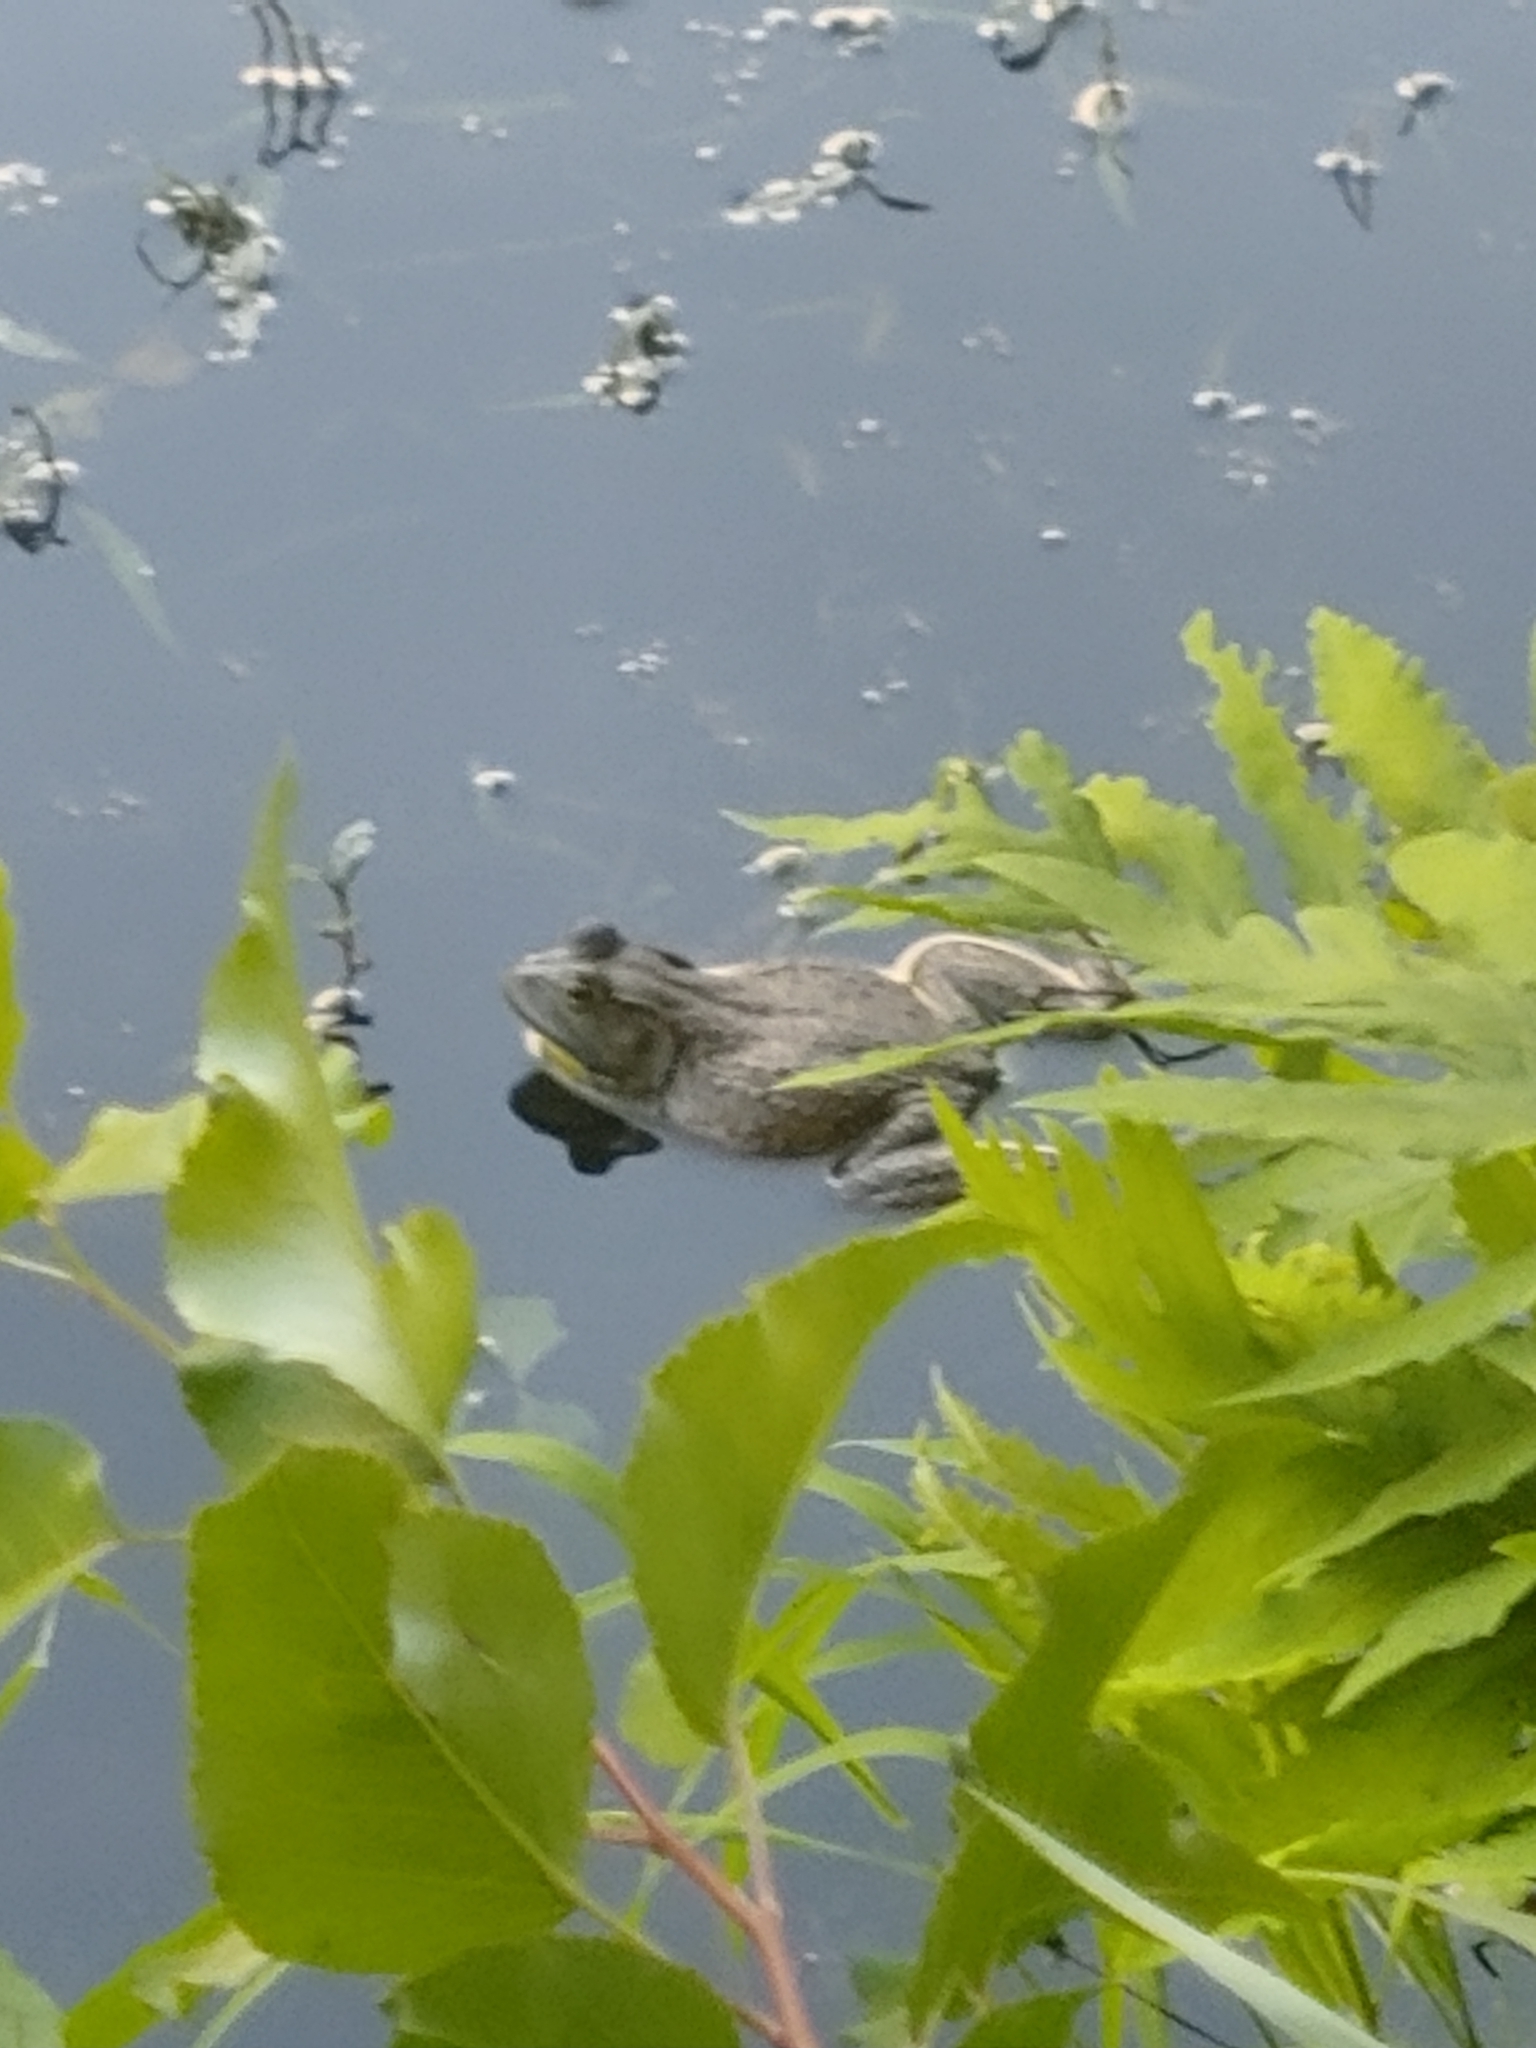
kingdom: Animalia
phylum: Chordata
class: Amphibia
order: Anura
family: Ranidae
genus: Lithobates
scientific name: Lithobates catesbeianus
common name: American bullfrog
